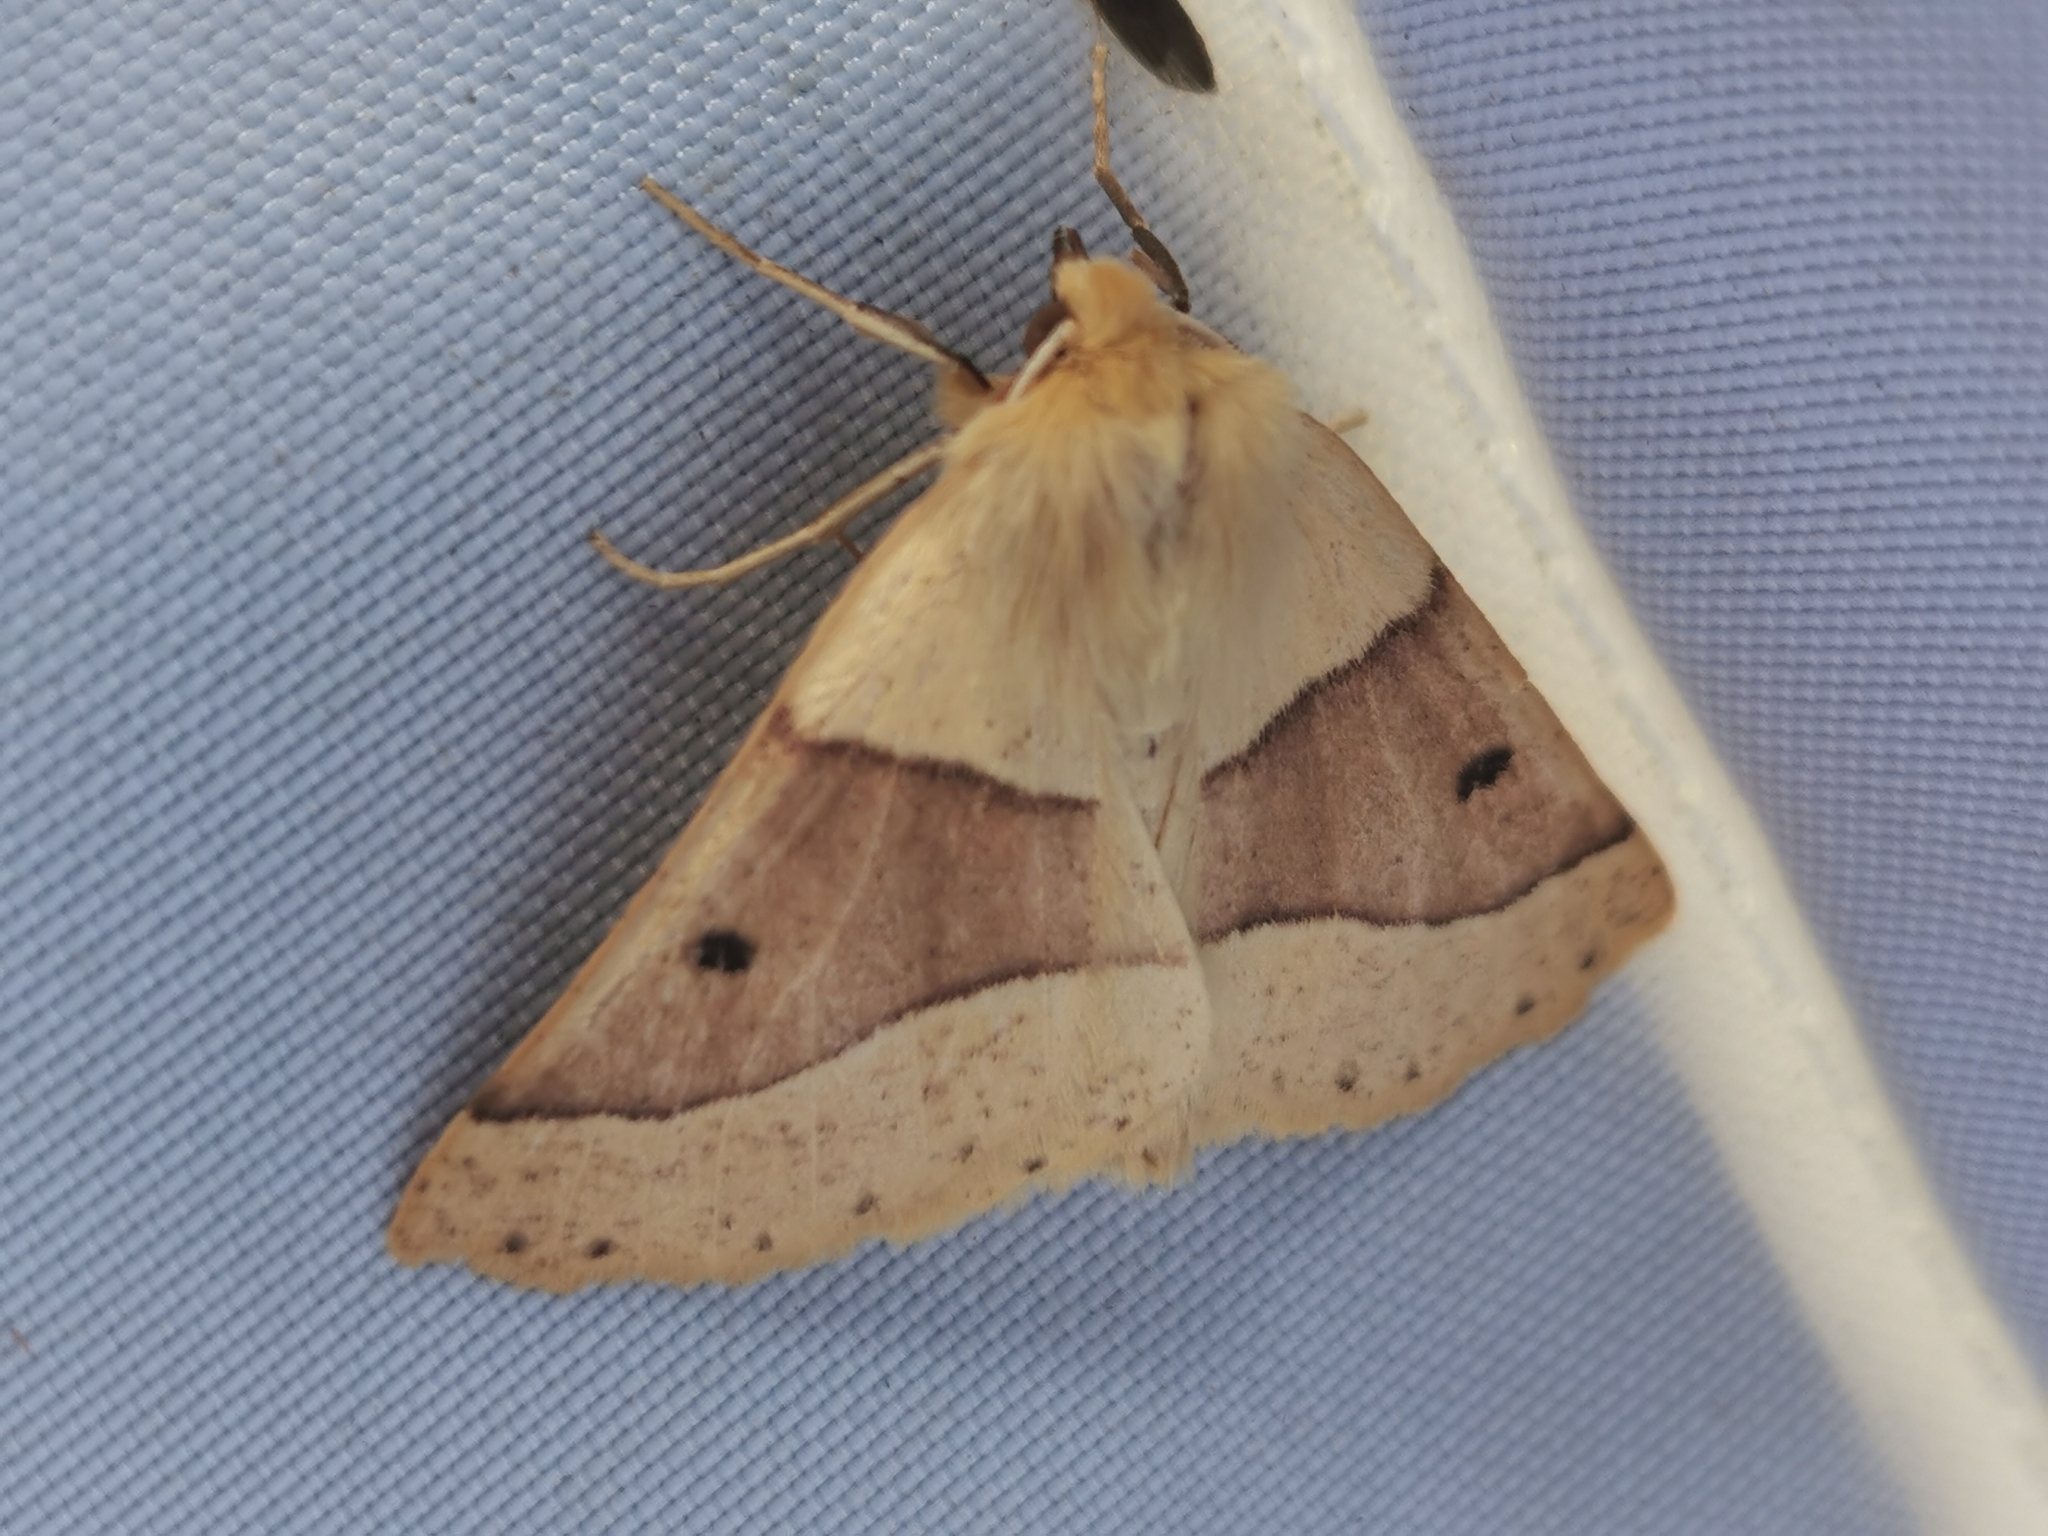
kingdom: Animalia
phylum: Arthropoda
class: Insecta
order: Lepidoptera
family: Geometridae
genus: Crocallis
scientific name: Crocallis elinguaria
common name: Scalloped oak
